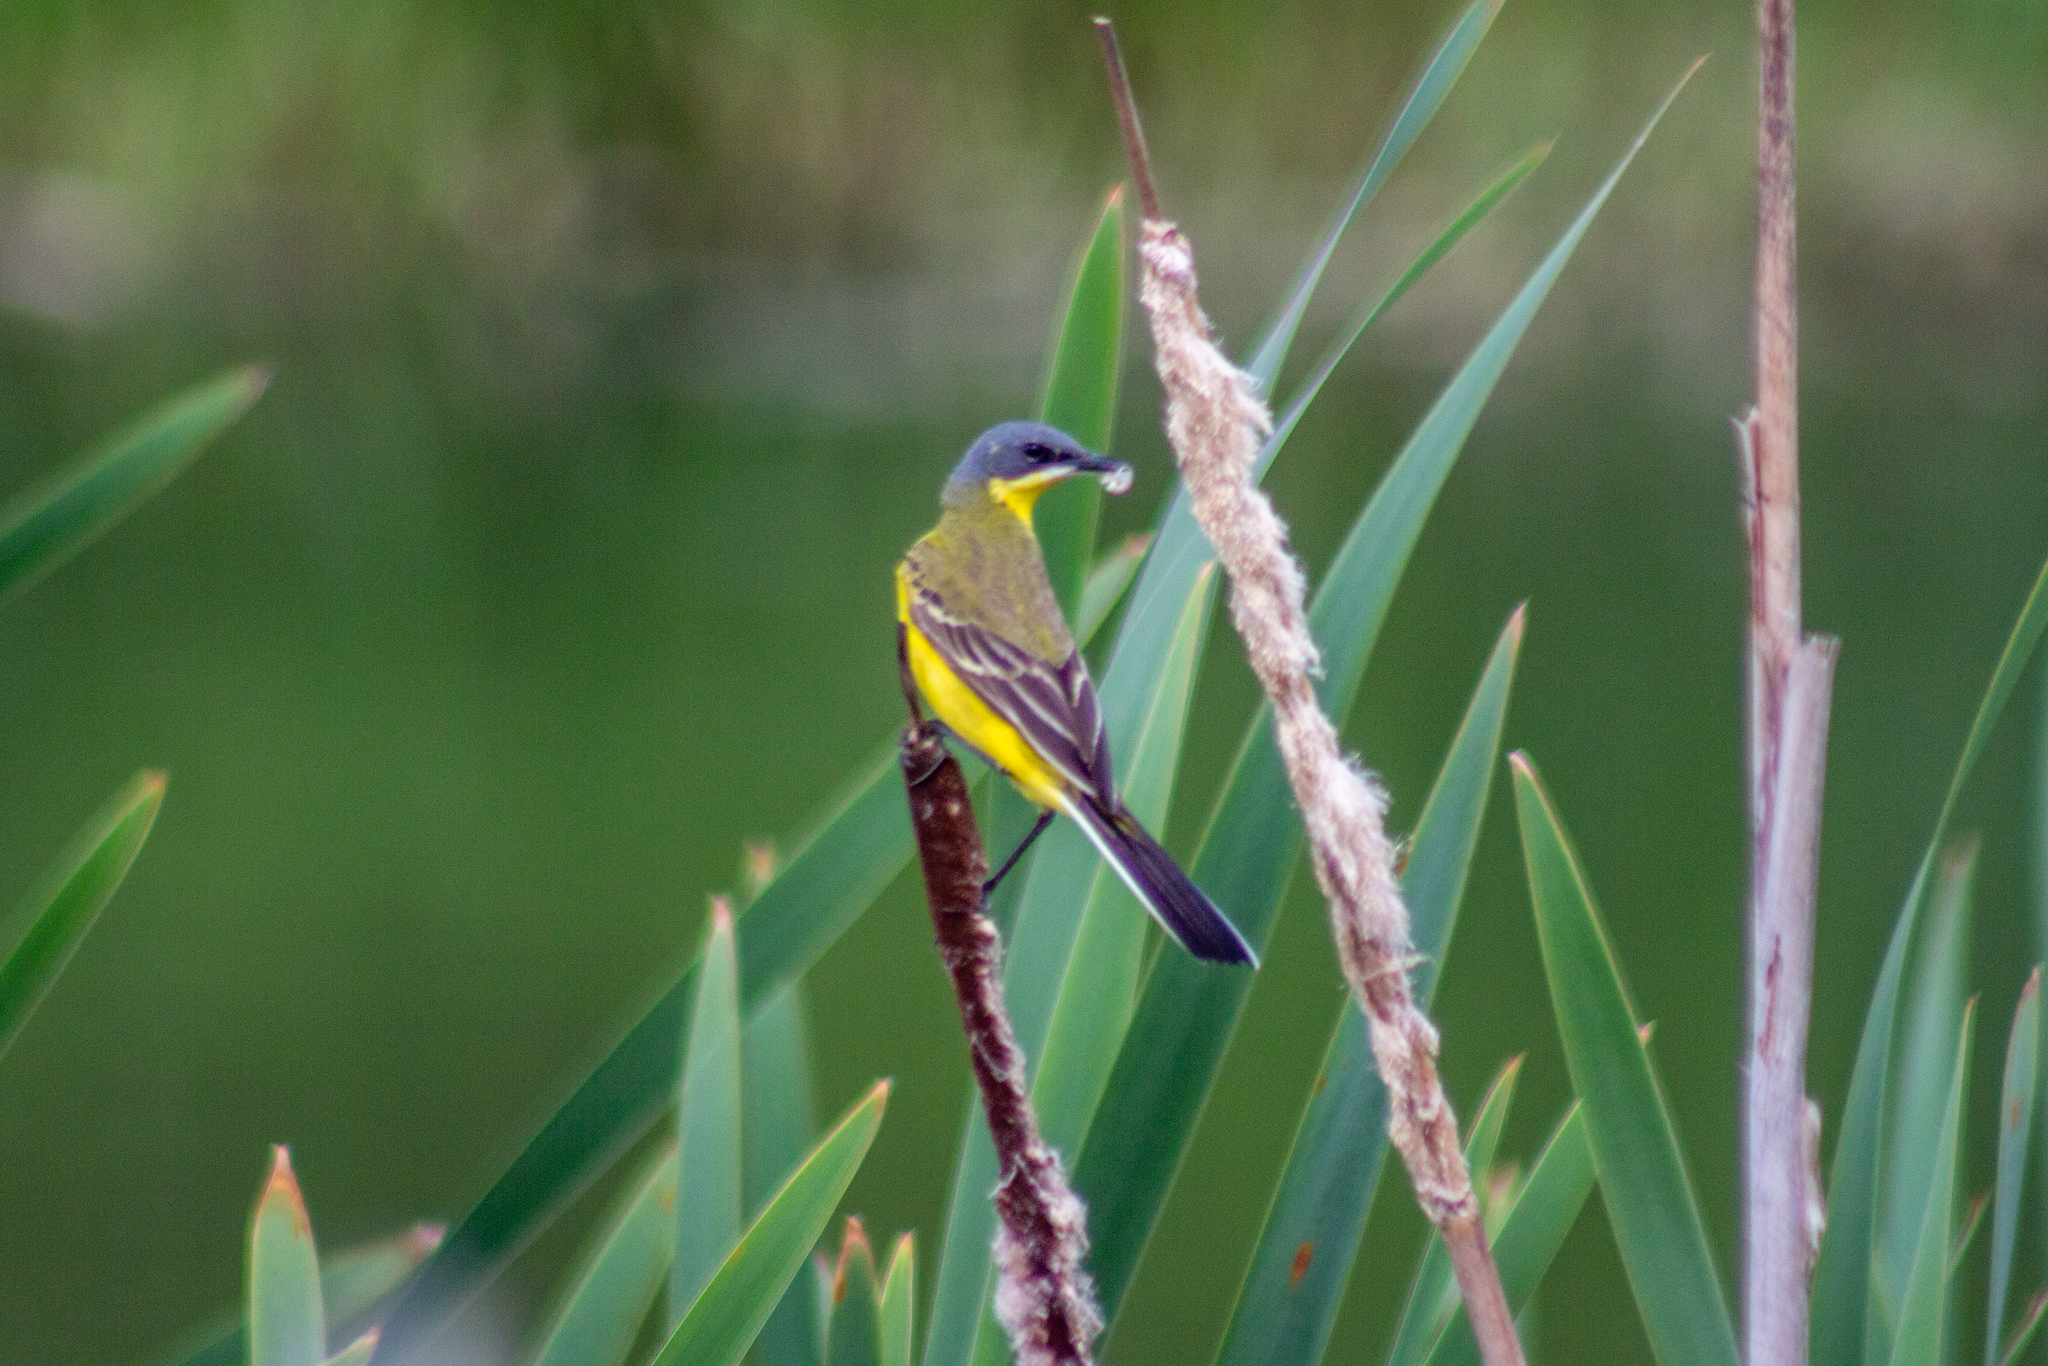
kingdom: Animalia
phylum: Chordata
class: Aves
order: Passeriformes
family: Motacillidae
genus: Motacilla
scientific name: Motacilla flava
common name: Western yellow wagtail
